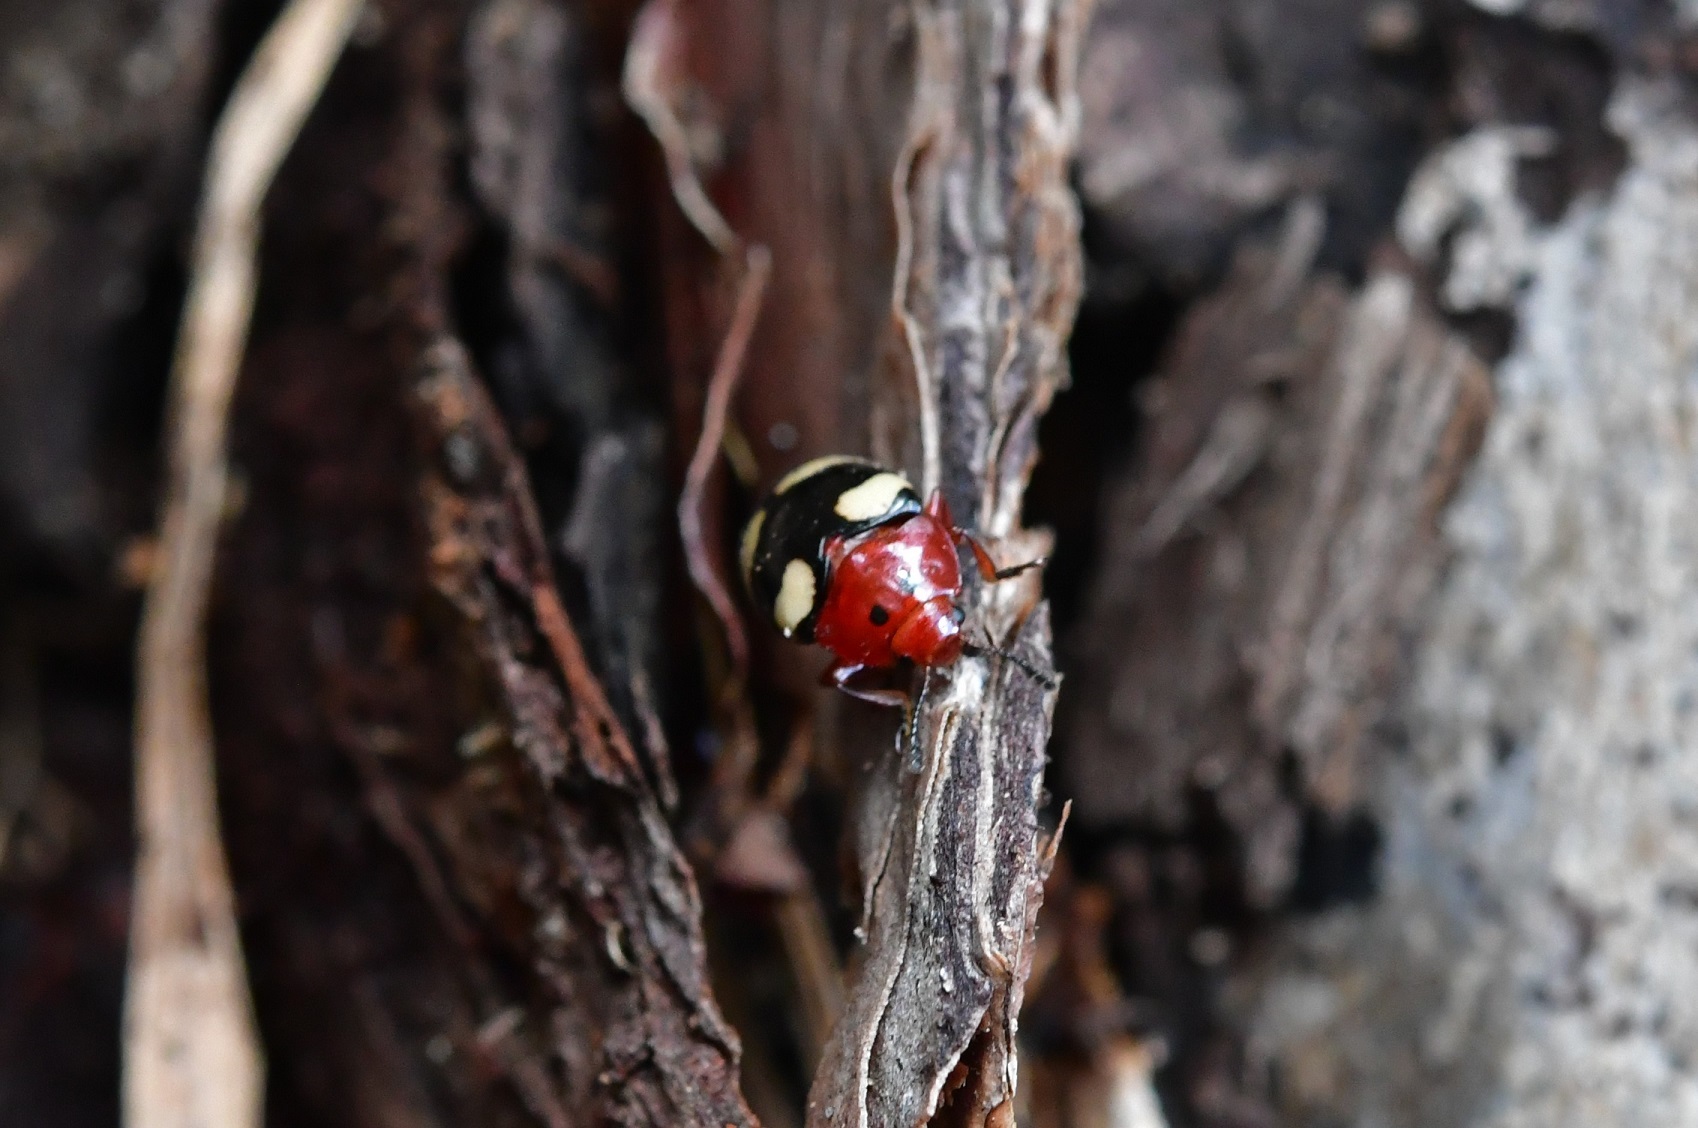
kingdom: Animalia
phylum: Arthropoda
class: Insecta
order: Coleoptera
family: Erotylidae
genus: Callischyrus
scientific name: Callischyrus
